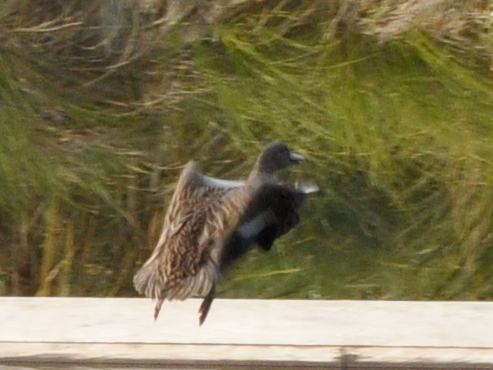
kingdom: Animalia
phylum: Chordata
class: Aves
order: Anseriformes
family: Anatidae
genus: Anas
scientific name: Anas platyrhynchos
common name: Mallard
